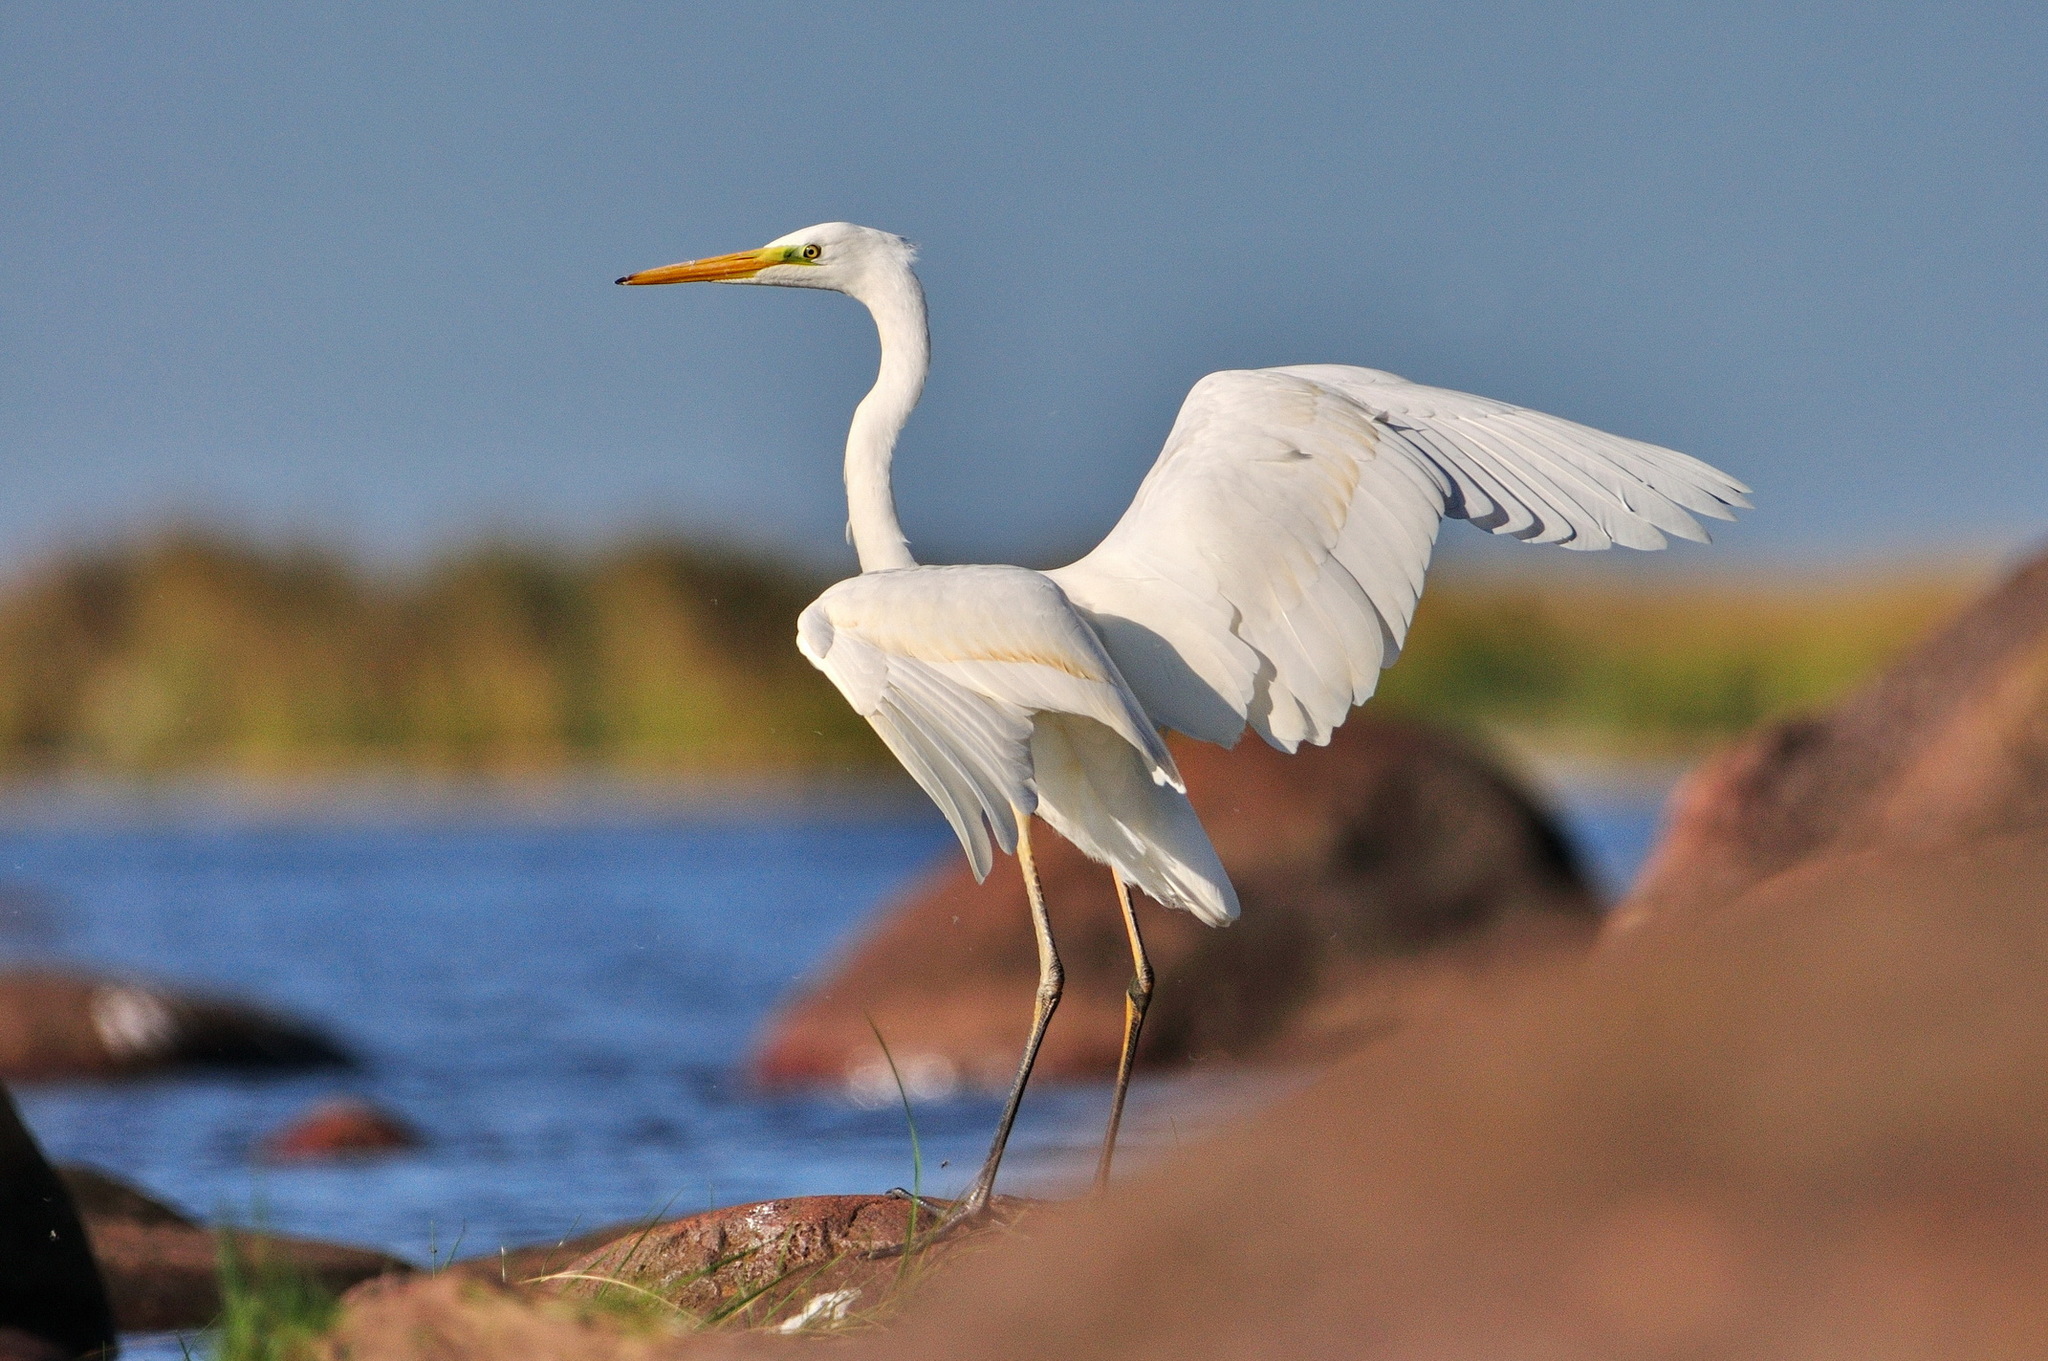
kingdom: Animalia
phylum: Chordata
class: Aves
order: Pelecaniformes
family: Ardeidae
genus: Ardea
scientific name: Ardea alba
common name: Great egret
